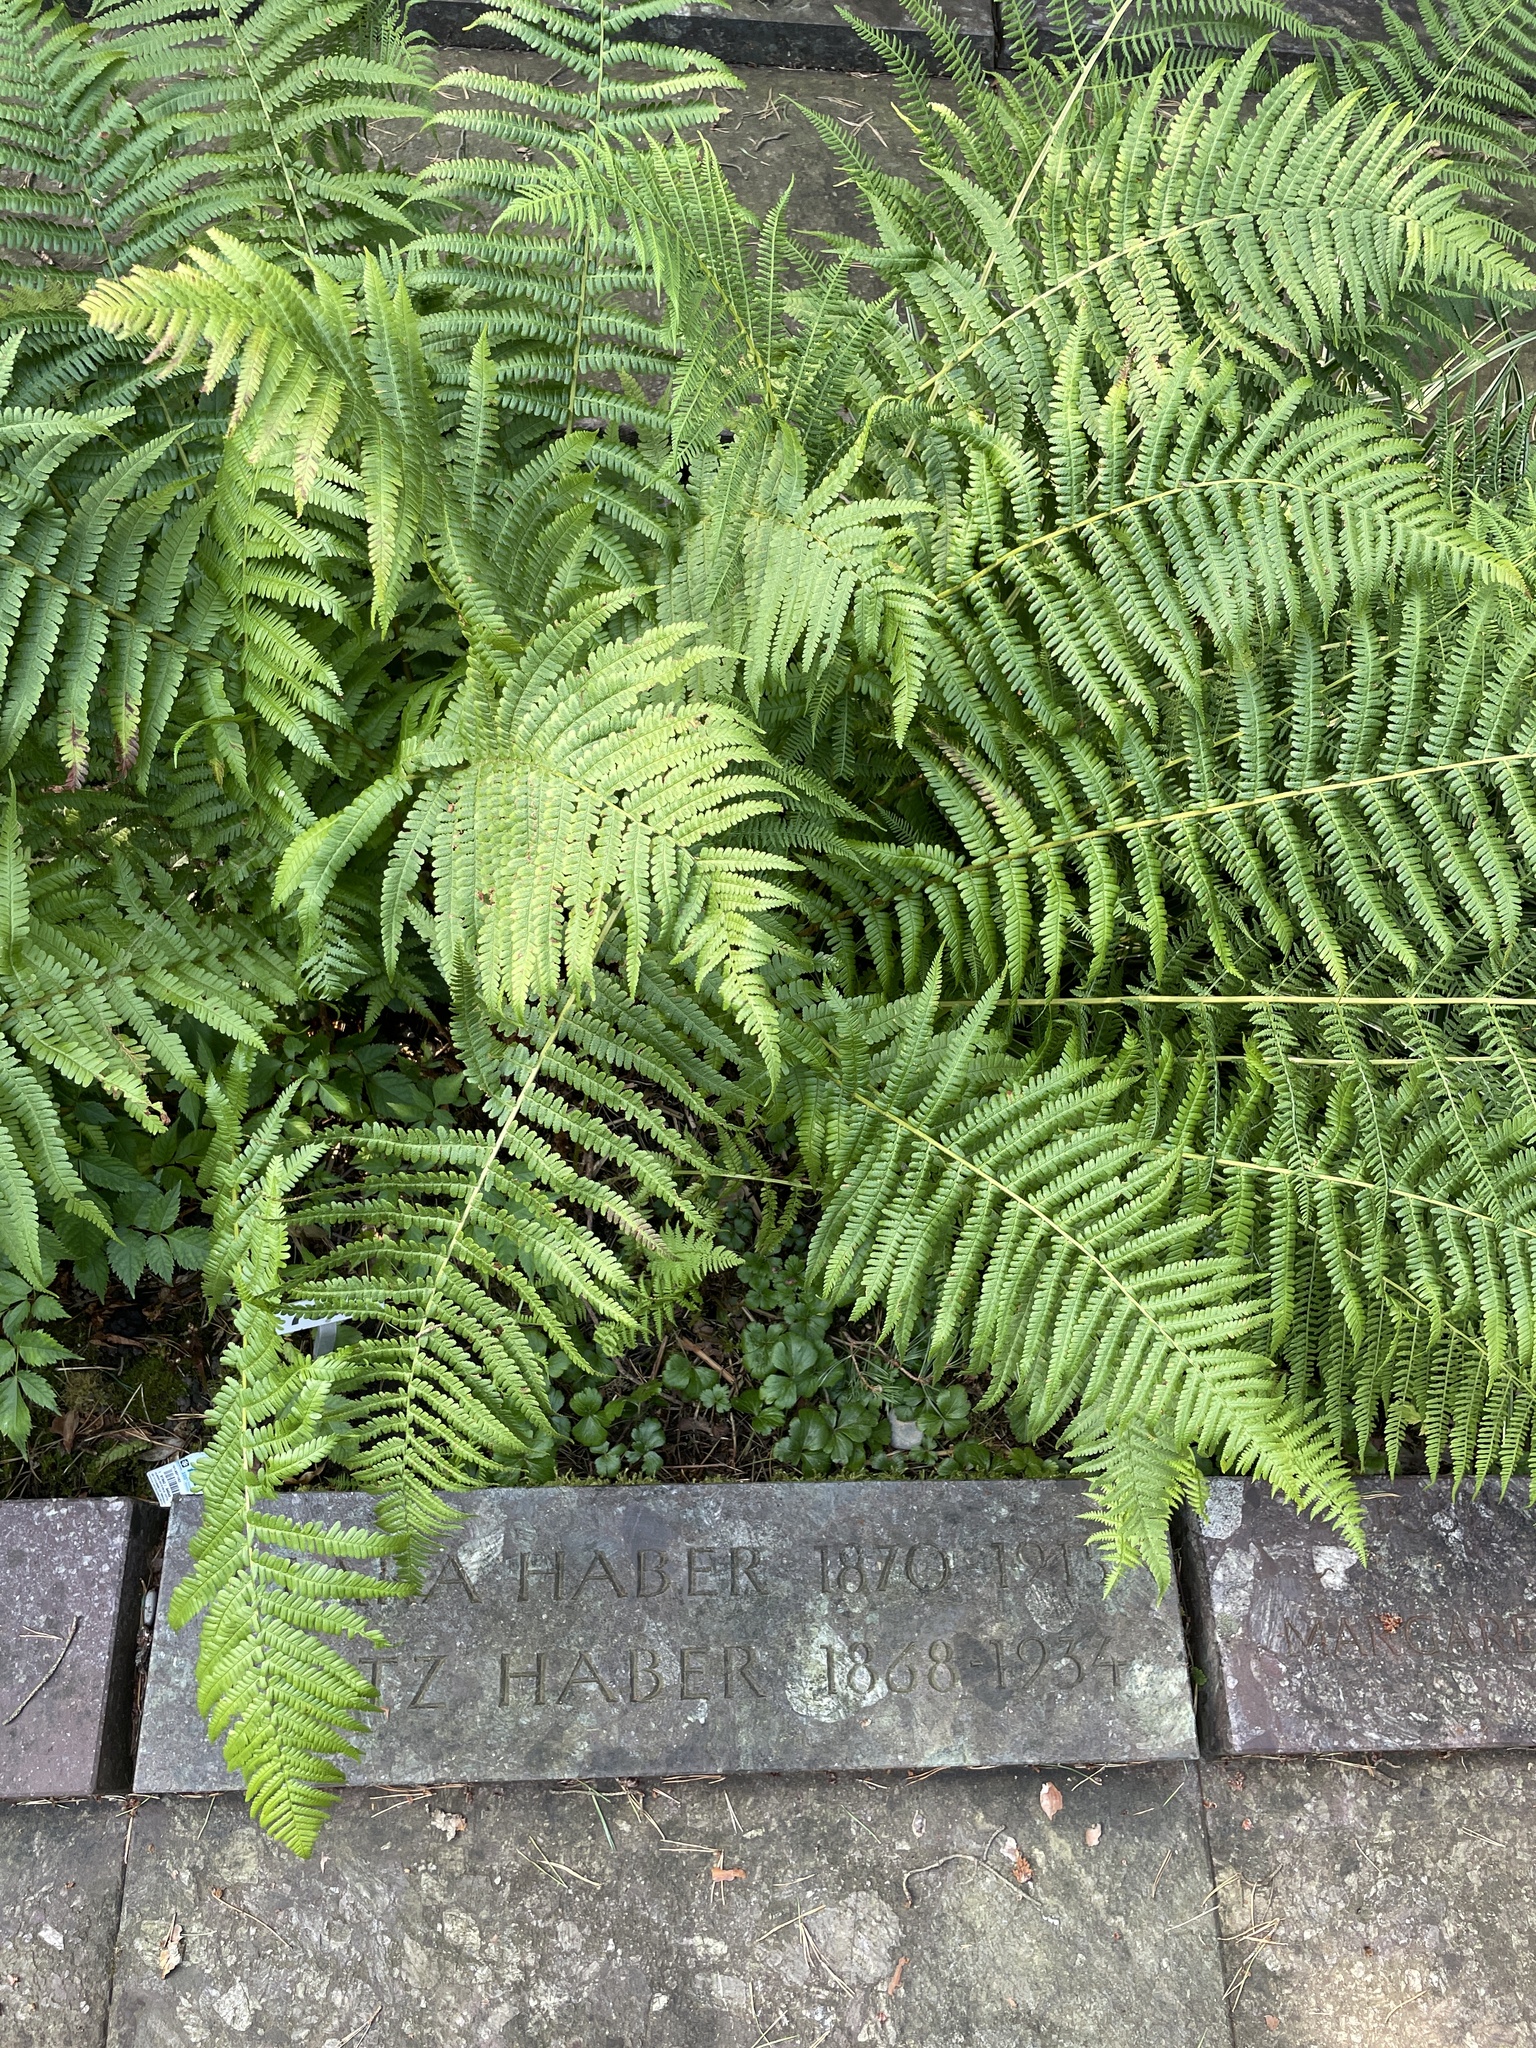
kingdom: Plantae
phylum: Tracheophyta
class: Polypodiopsida
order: Polypodiales
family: Dryopteridaceae
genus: Dryopteris
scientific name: Dryopteris filix-mas
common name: Male fern
